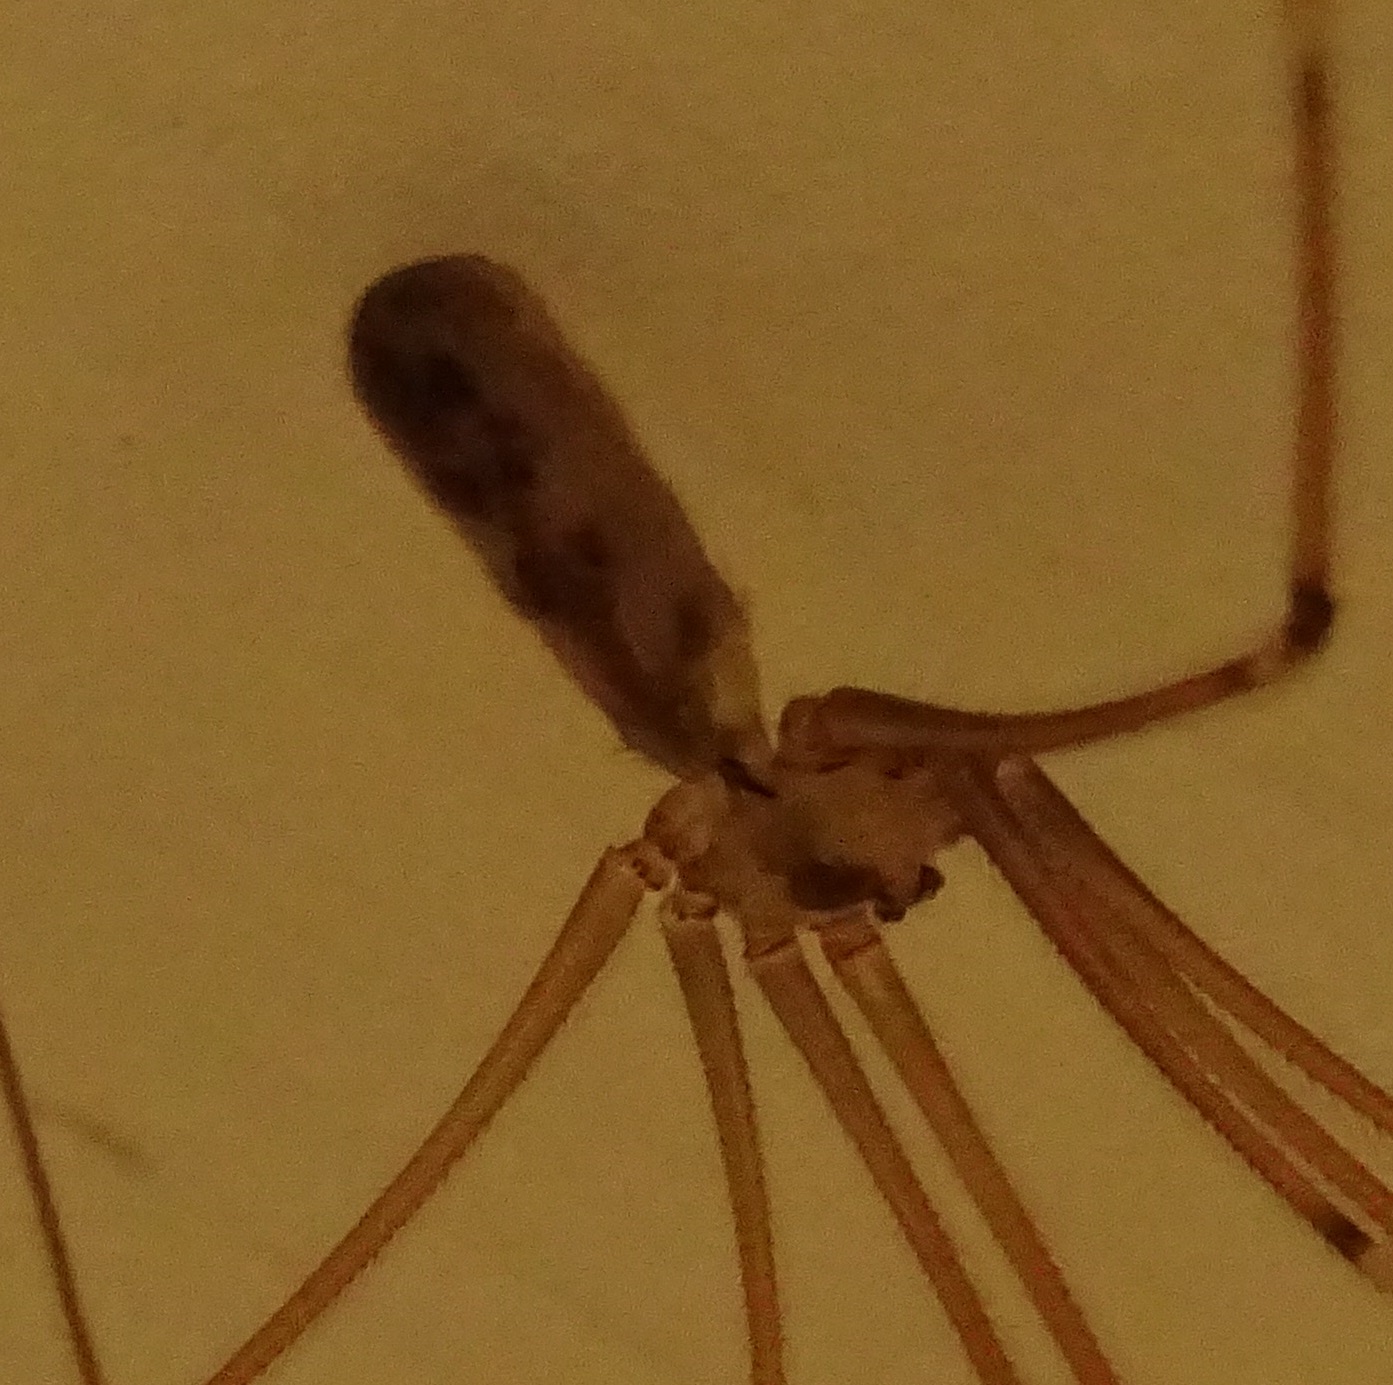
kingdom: Animalia
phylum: Arthropoda
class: Arachnida
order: Araneae
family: Pholcidae
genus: Pholcus
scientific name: Pholcus phalangioides
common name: Longbodied cellar spider
